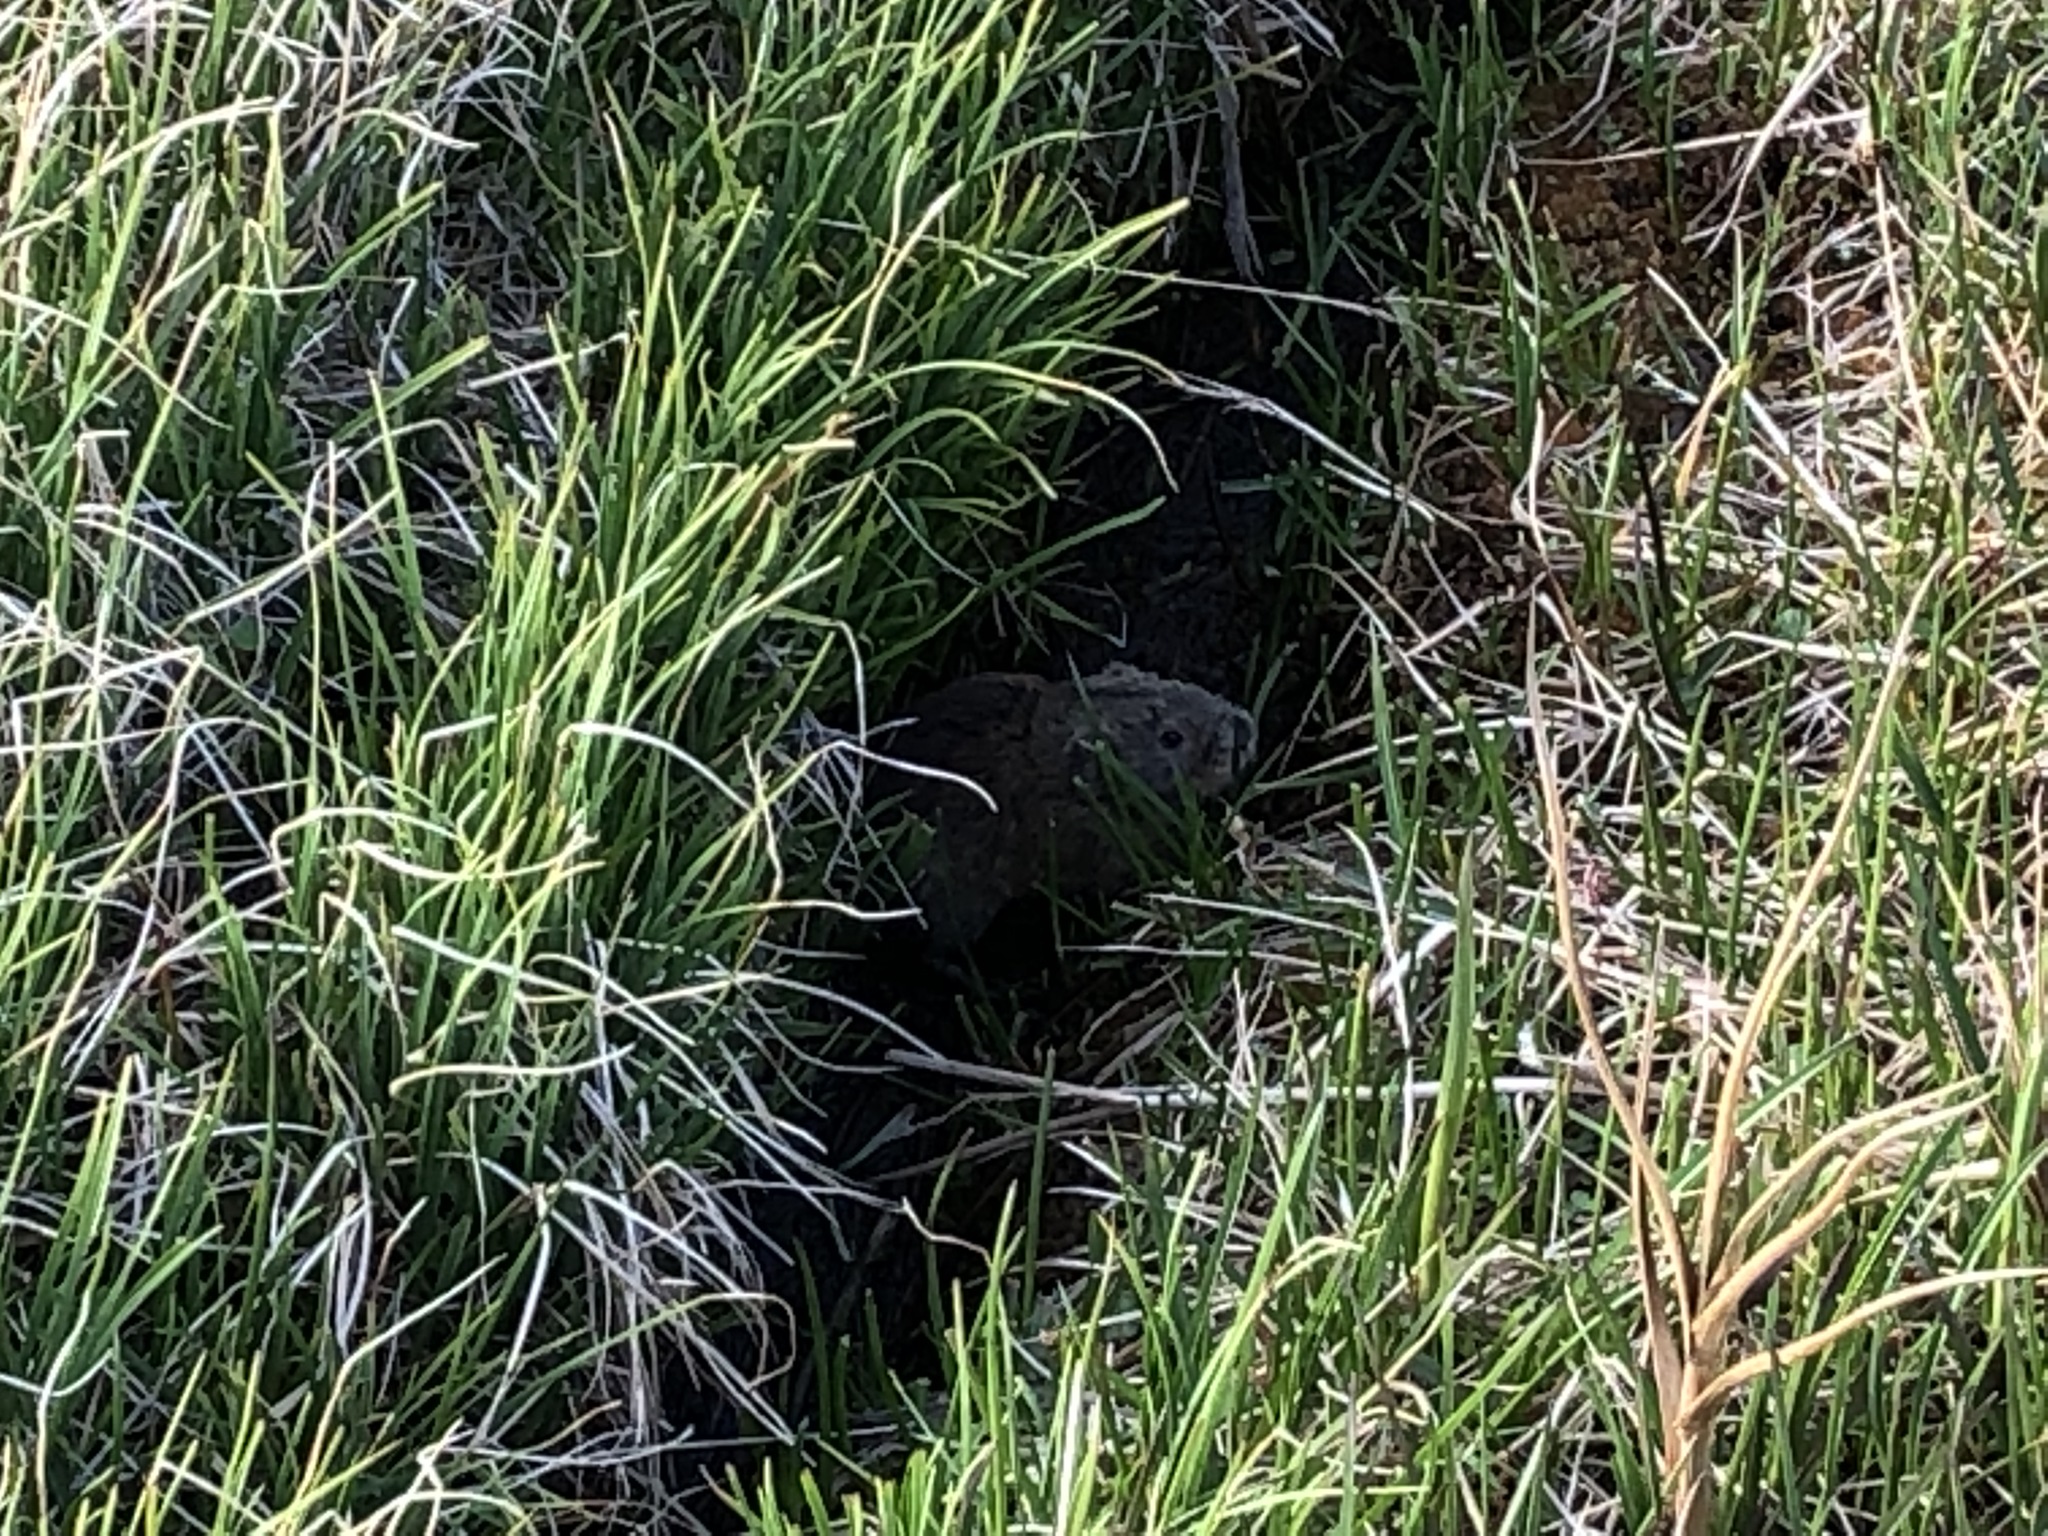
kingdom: Animalia
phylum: Chordata
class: Mammalia
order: Rodentia
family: Cricetidae
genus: Lemmus
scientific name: Lemmus trimucronatus
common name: Brown lemming
